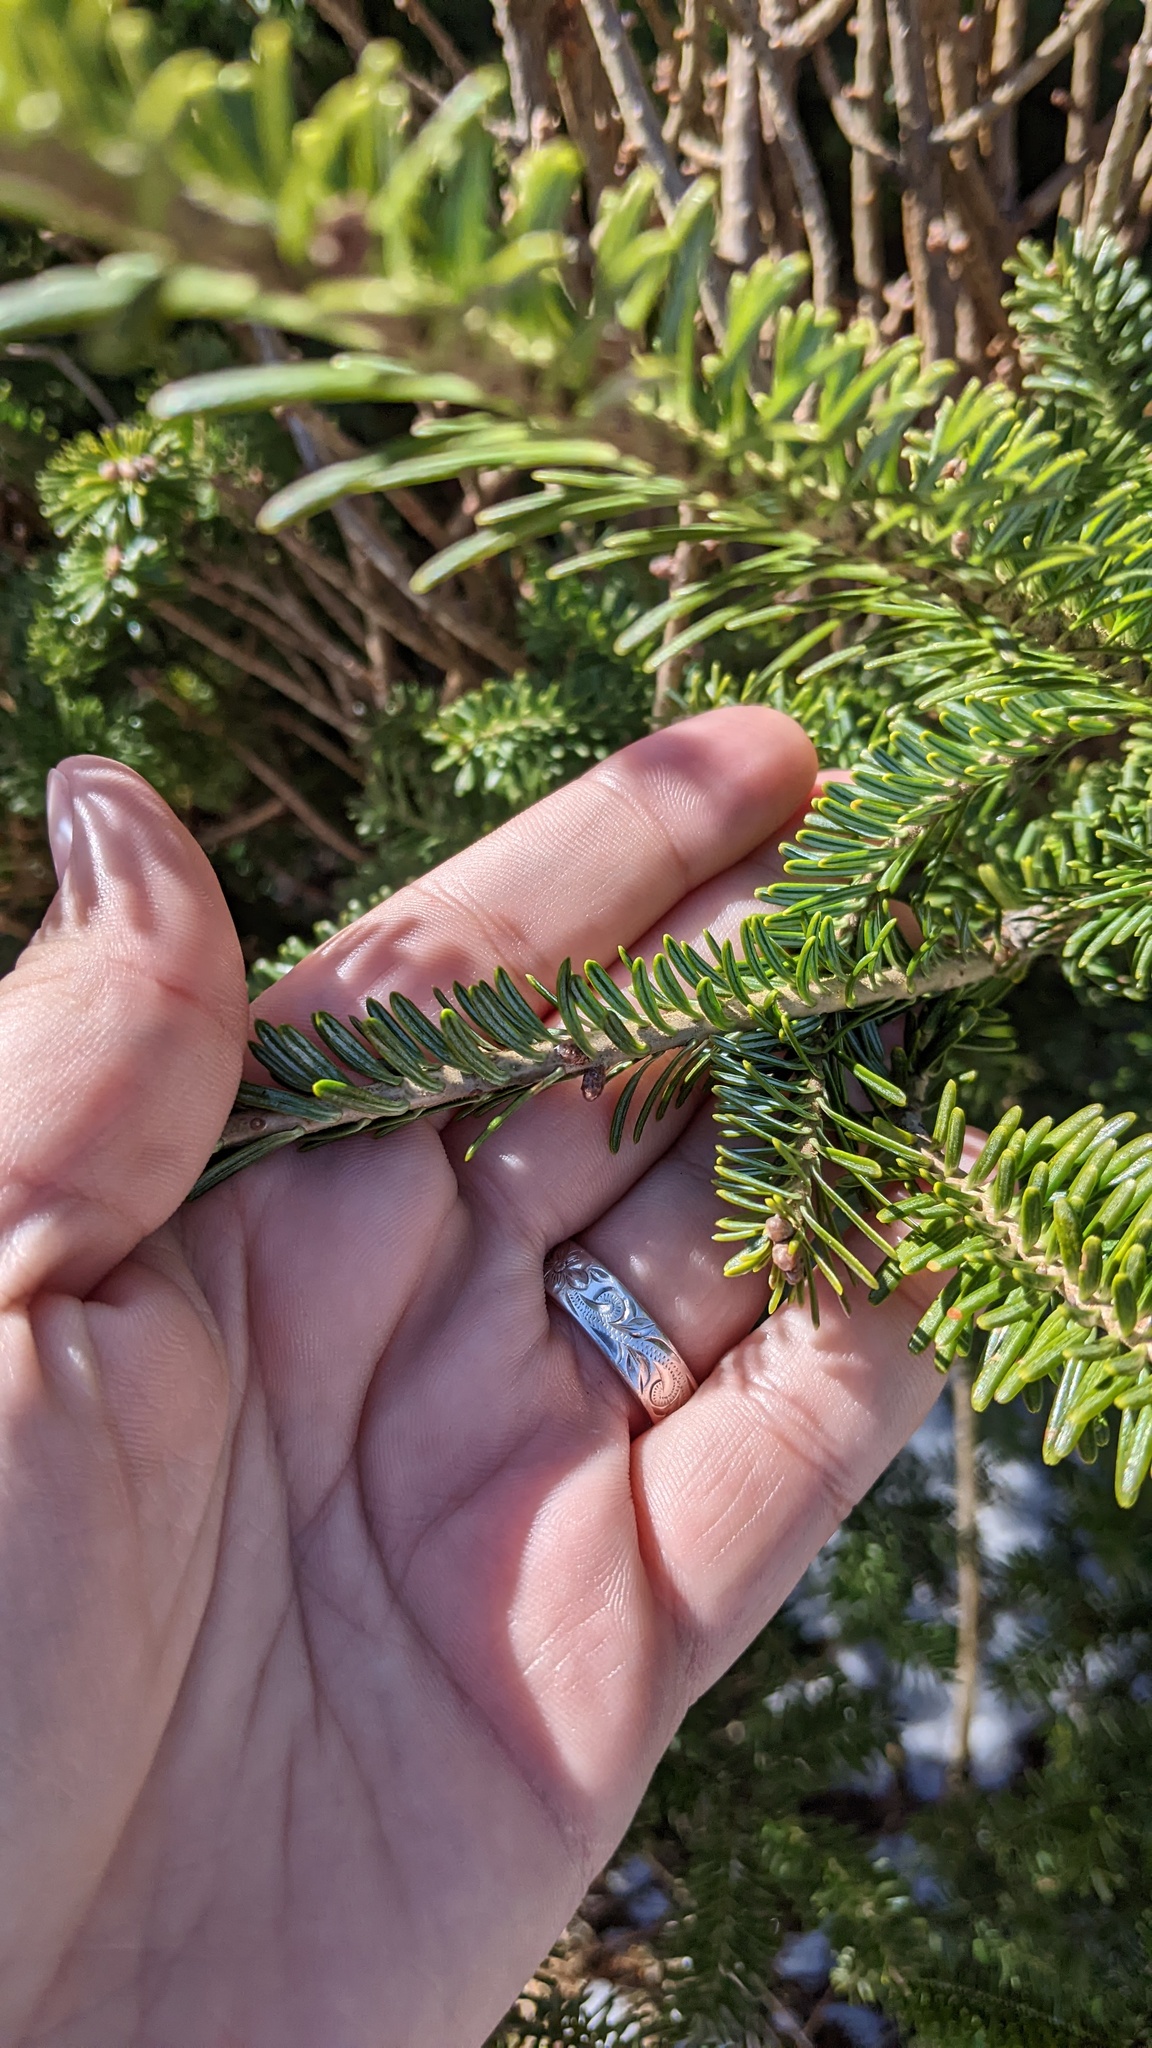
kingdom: Plantae
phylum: Tracheophyta
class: Pinopsida
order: Pinales
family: Pinaceae
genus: Abies
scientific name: Abies balsamea
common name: Balsam fir
